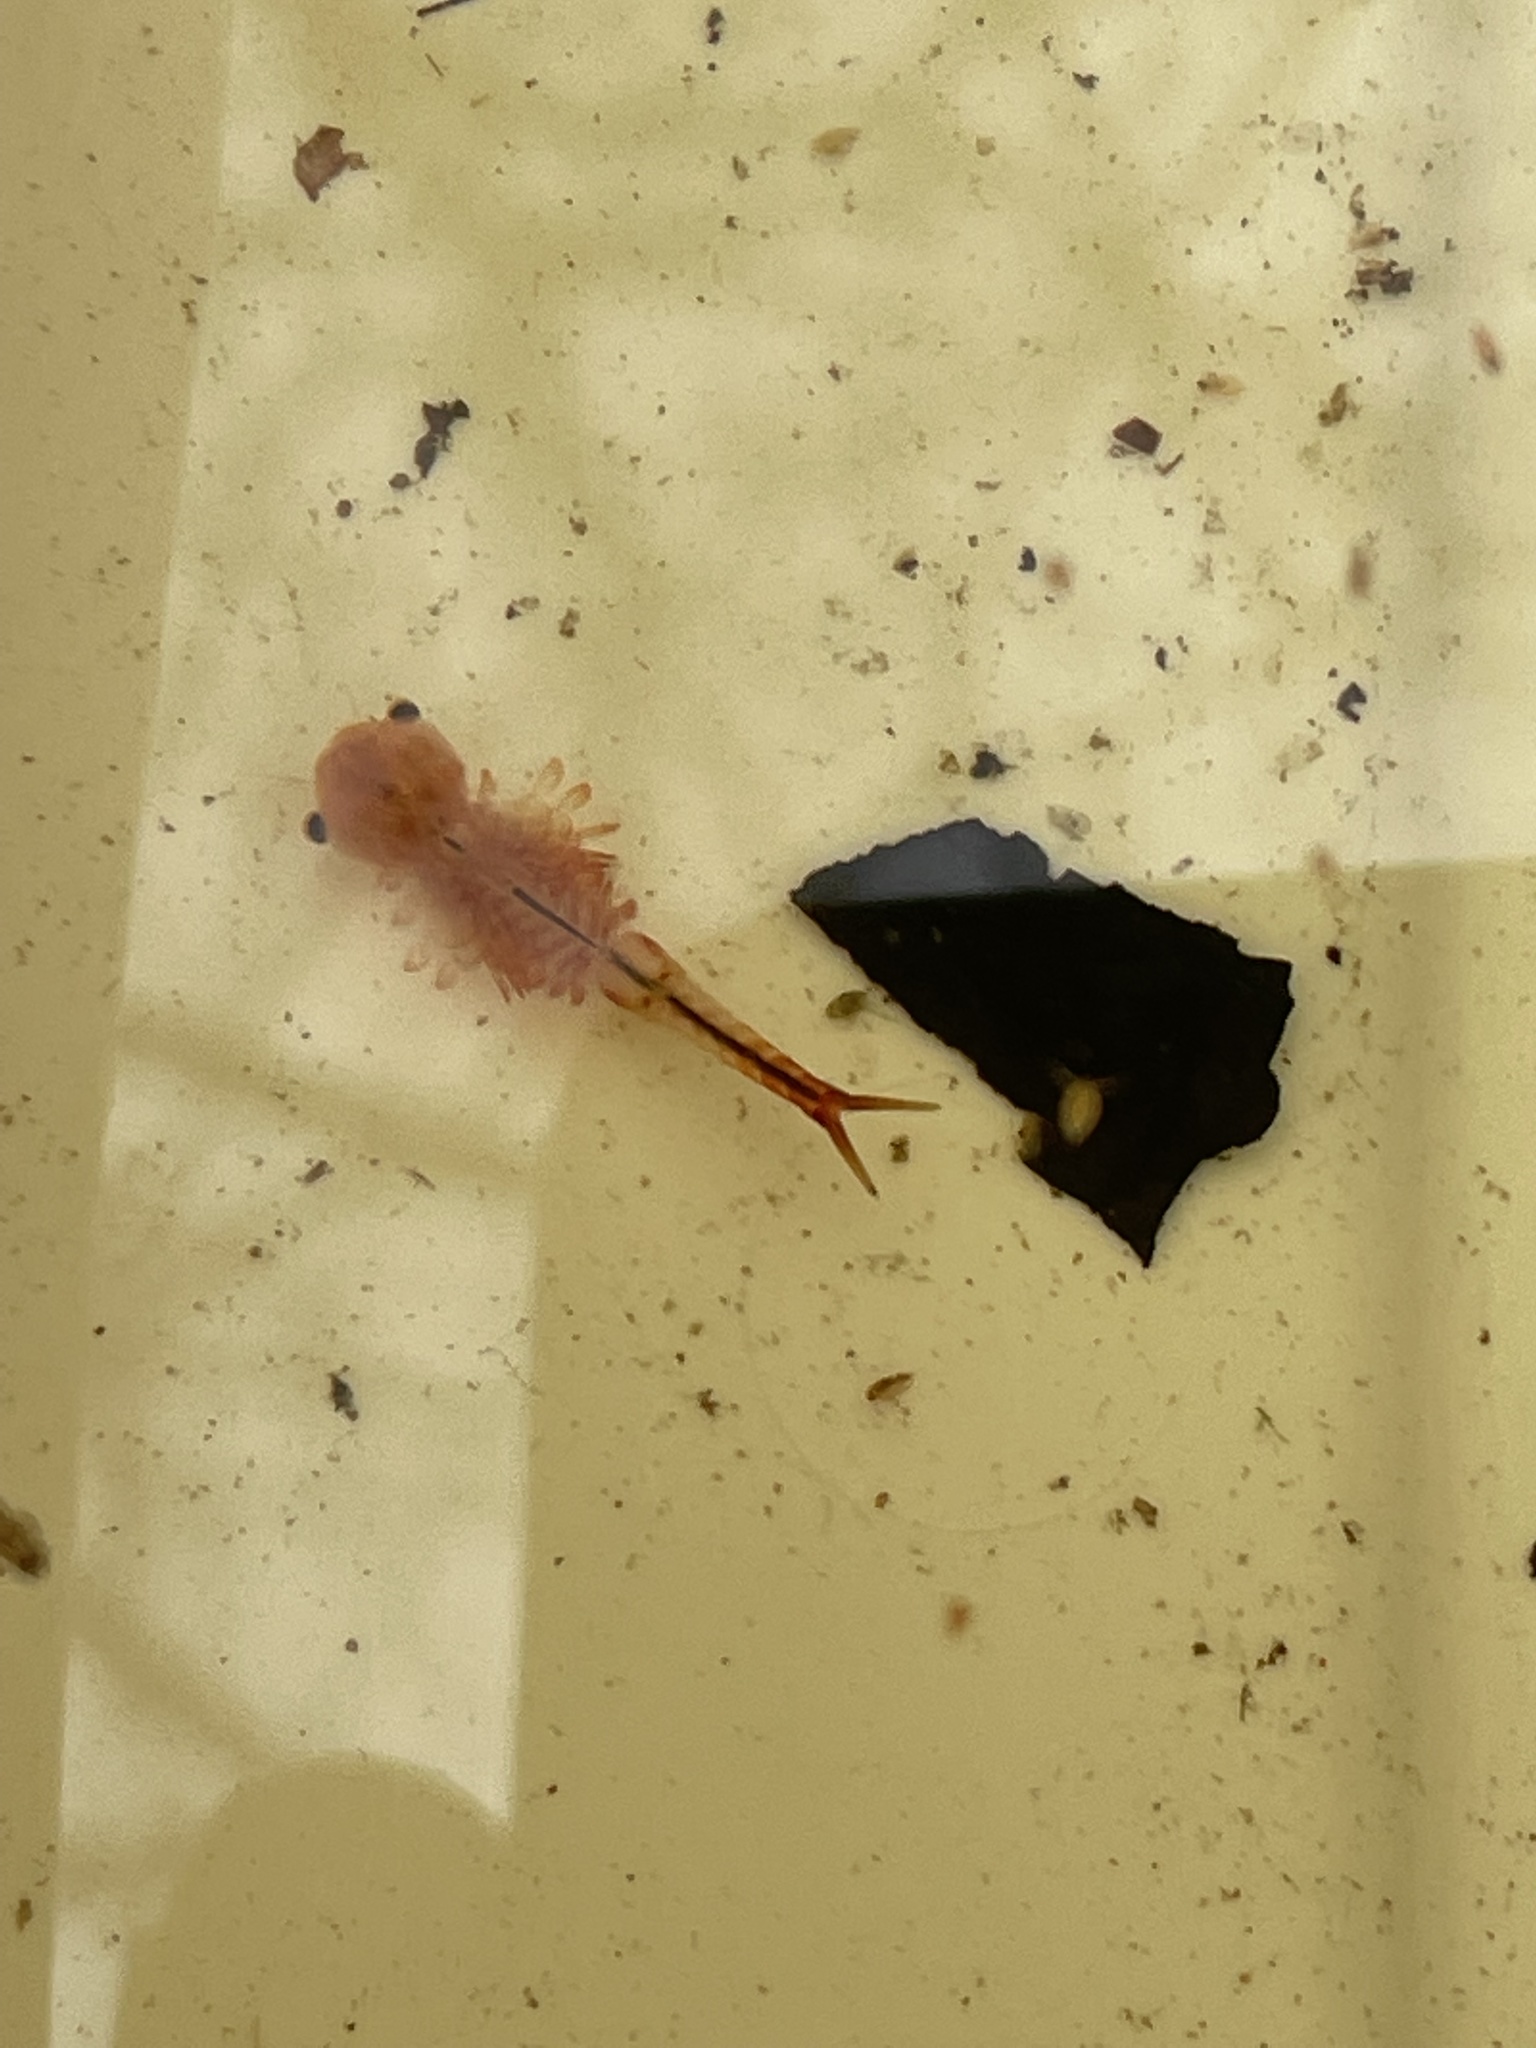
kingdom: Animalia
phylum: Arthropoda
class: Branchiopoda
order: Anostraca
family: Chirocephalidae
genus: Eubranchipus
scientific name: Eubranchipus vernalis
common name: Eastern fairy shrimp
